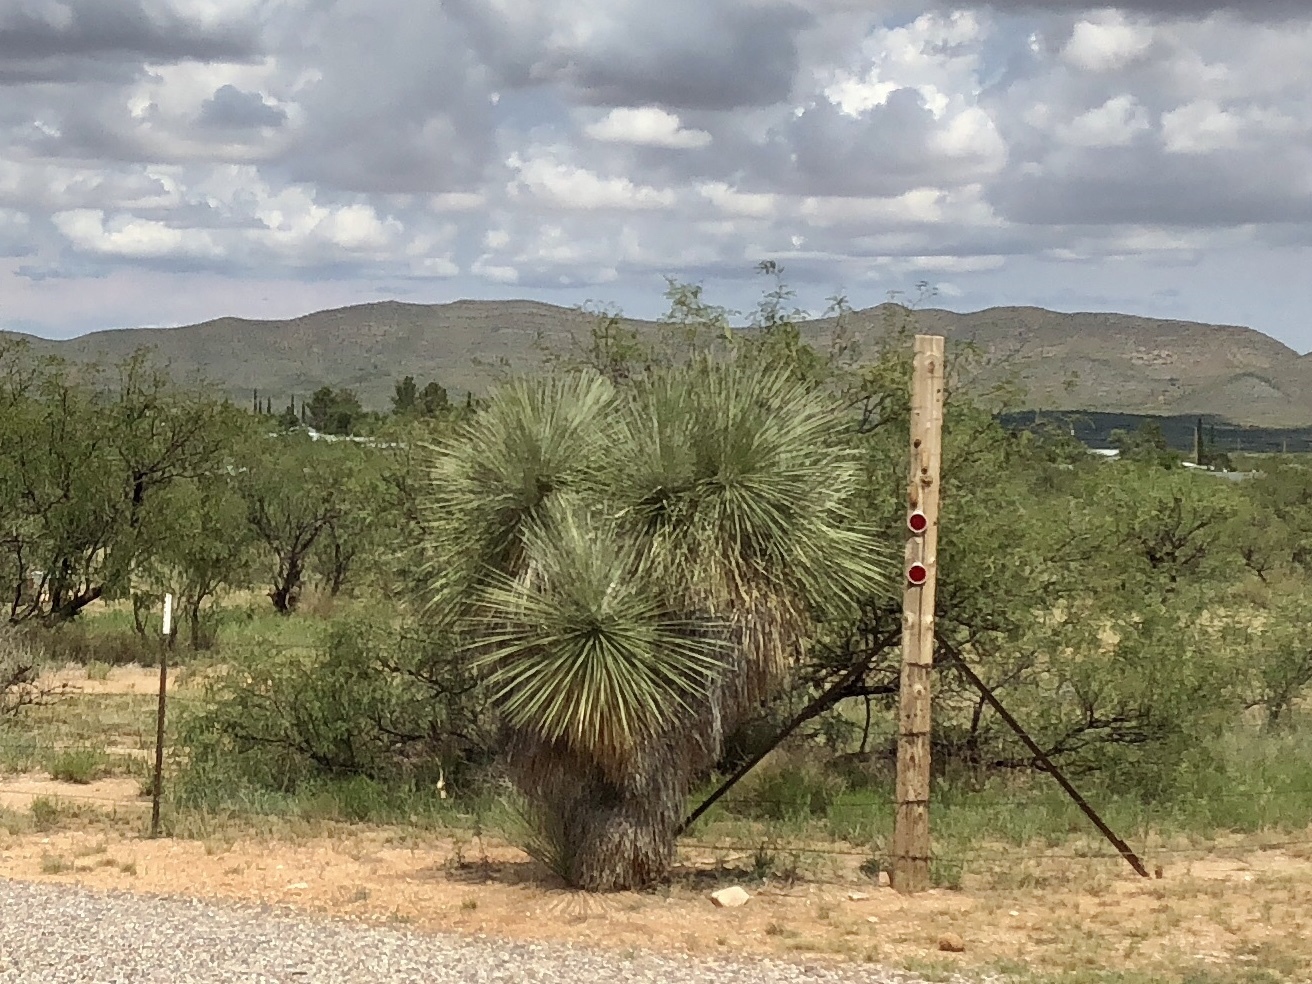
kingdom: Plantae
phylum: Tracheophyta
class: Liliopsida
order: Asparagales
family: Asparagaceae
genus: Yucca
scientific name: Yucca elata
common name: Palmella
